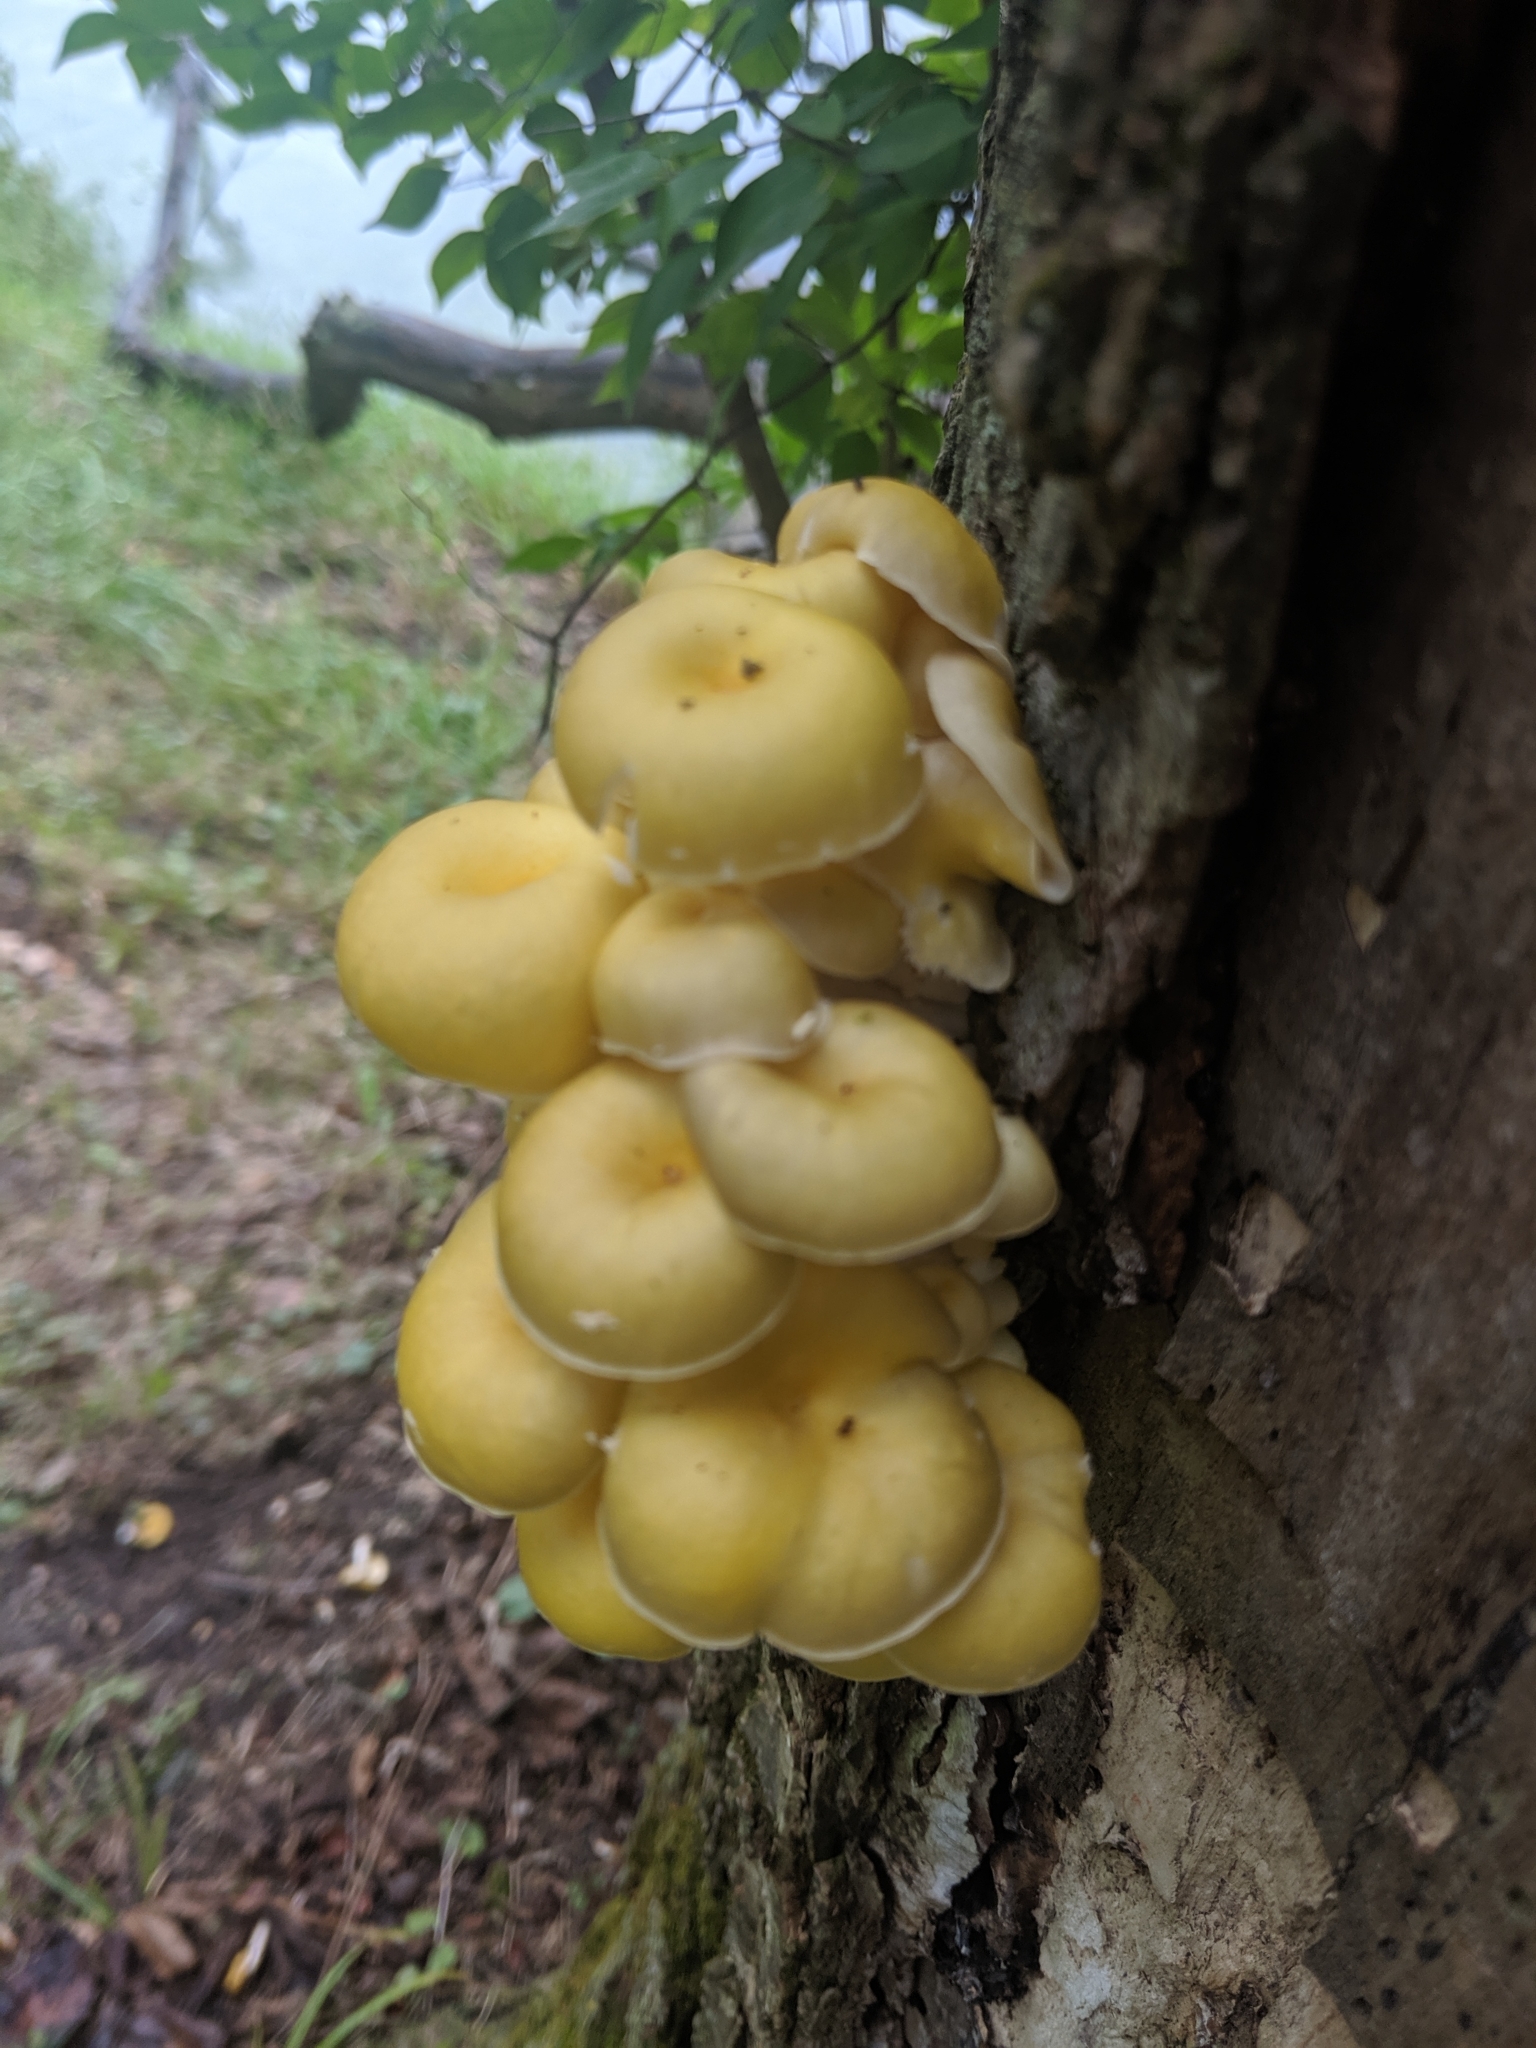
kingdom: Fungi
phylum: Basidiomycota
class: Agaricomycetes
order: Agaricales
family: Pleurotaceae
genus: Pleurotus
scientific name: Pleurotus citrinopileatus
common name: Golden oyster mushroom
